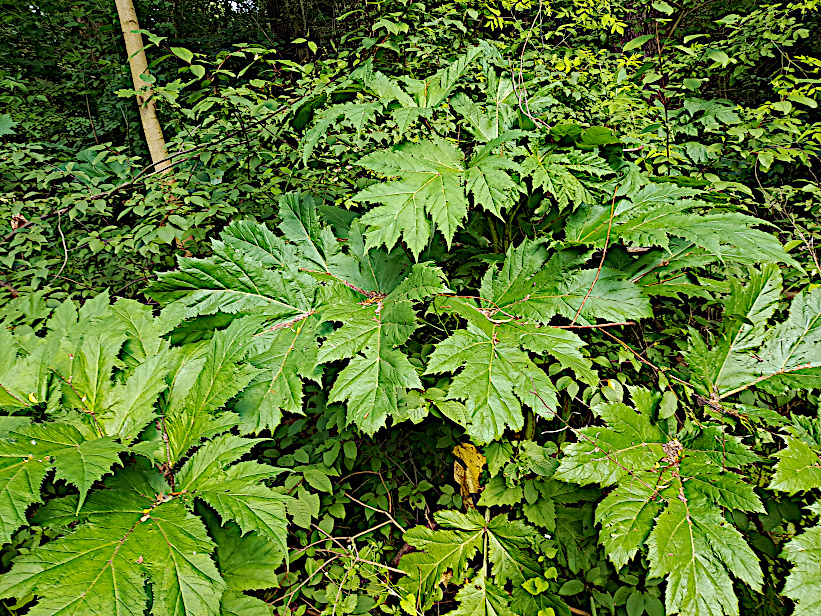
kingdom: Plantae
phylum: Tracheophyta
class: Magnoliopsida
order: Apiales
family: Apiaceae
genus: Heracleum
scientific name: Heracleum sosnowskyi
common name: Sosnowsky's hogweed
